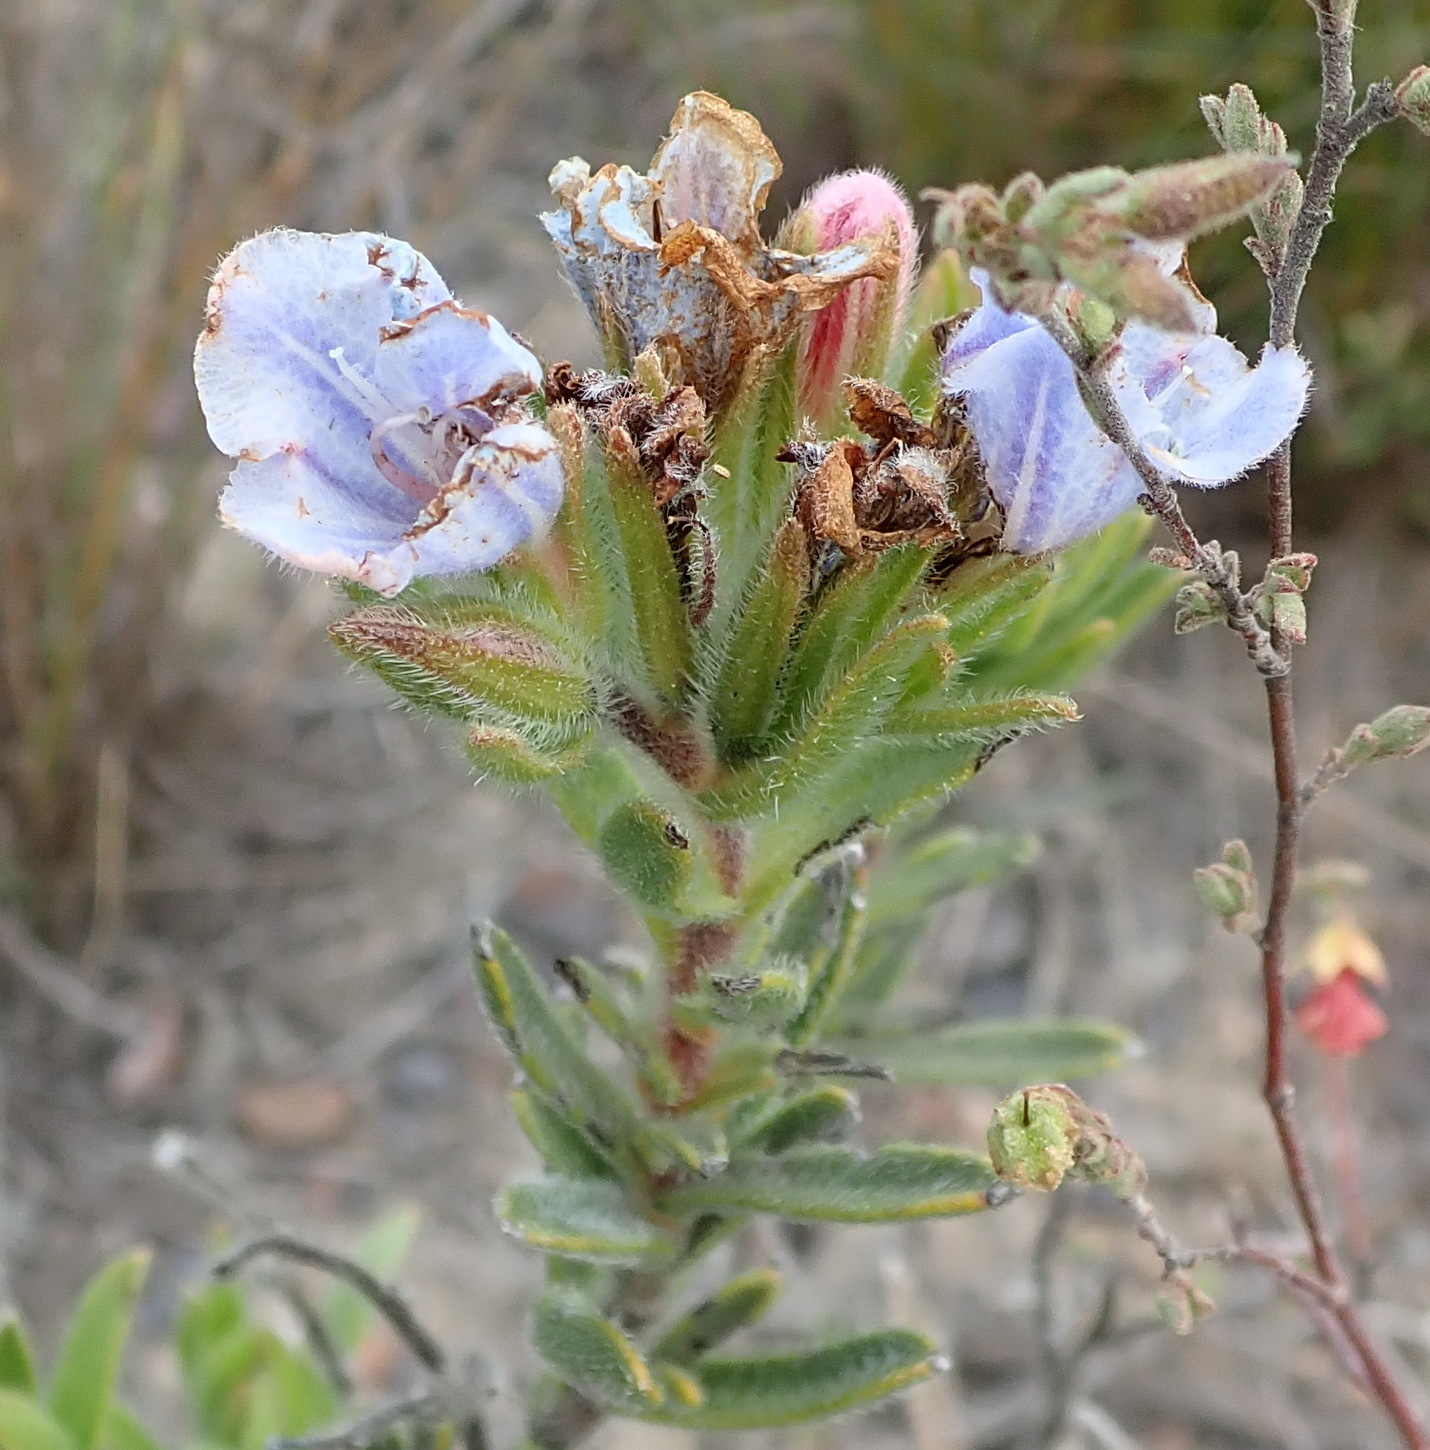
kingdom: Plantae
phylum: Tracheophyta
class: Magnoliopsida
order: Boraginales
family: Boraginaceae
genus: Lobostemon
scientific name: Lobostemon fruticosus
